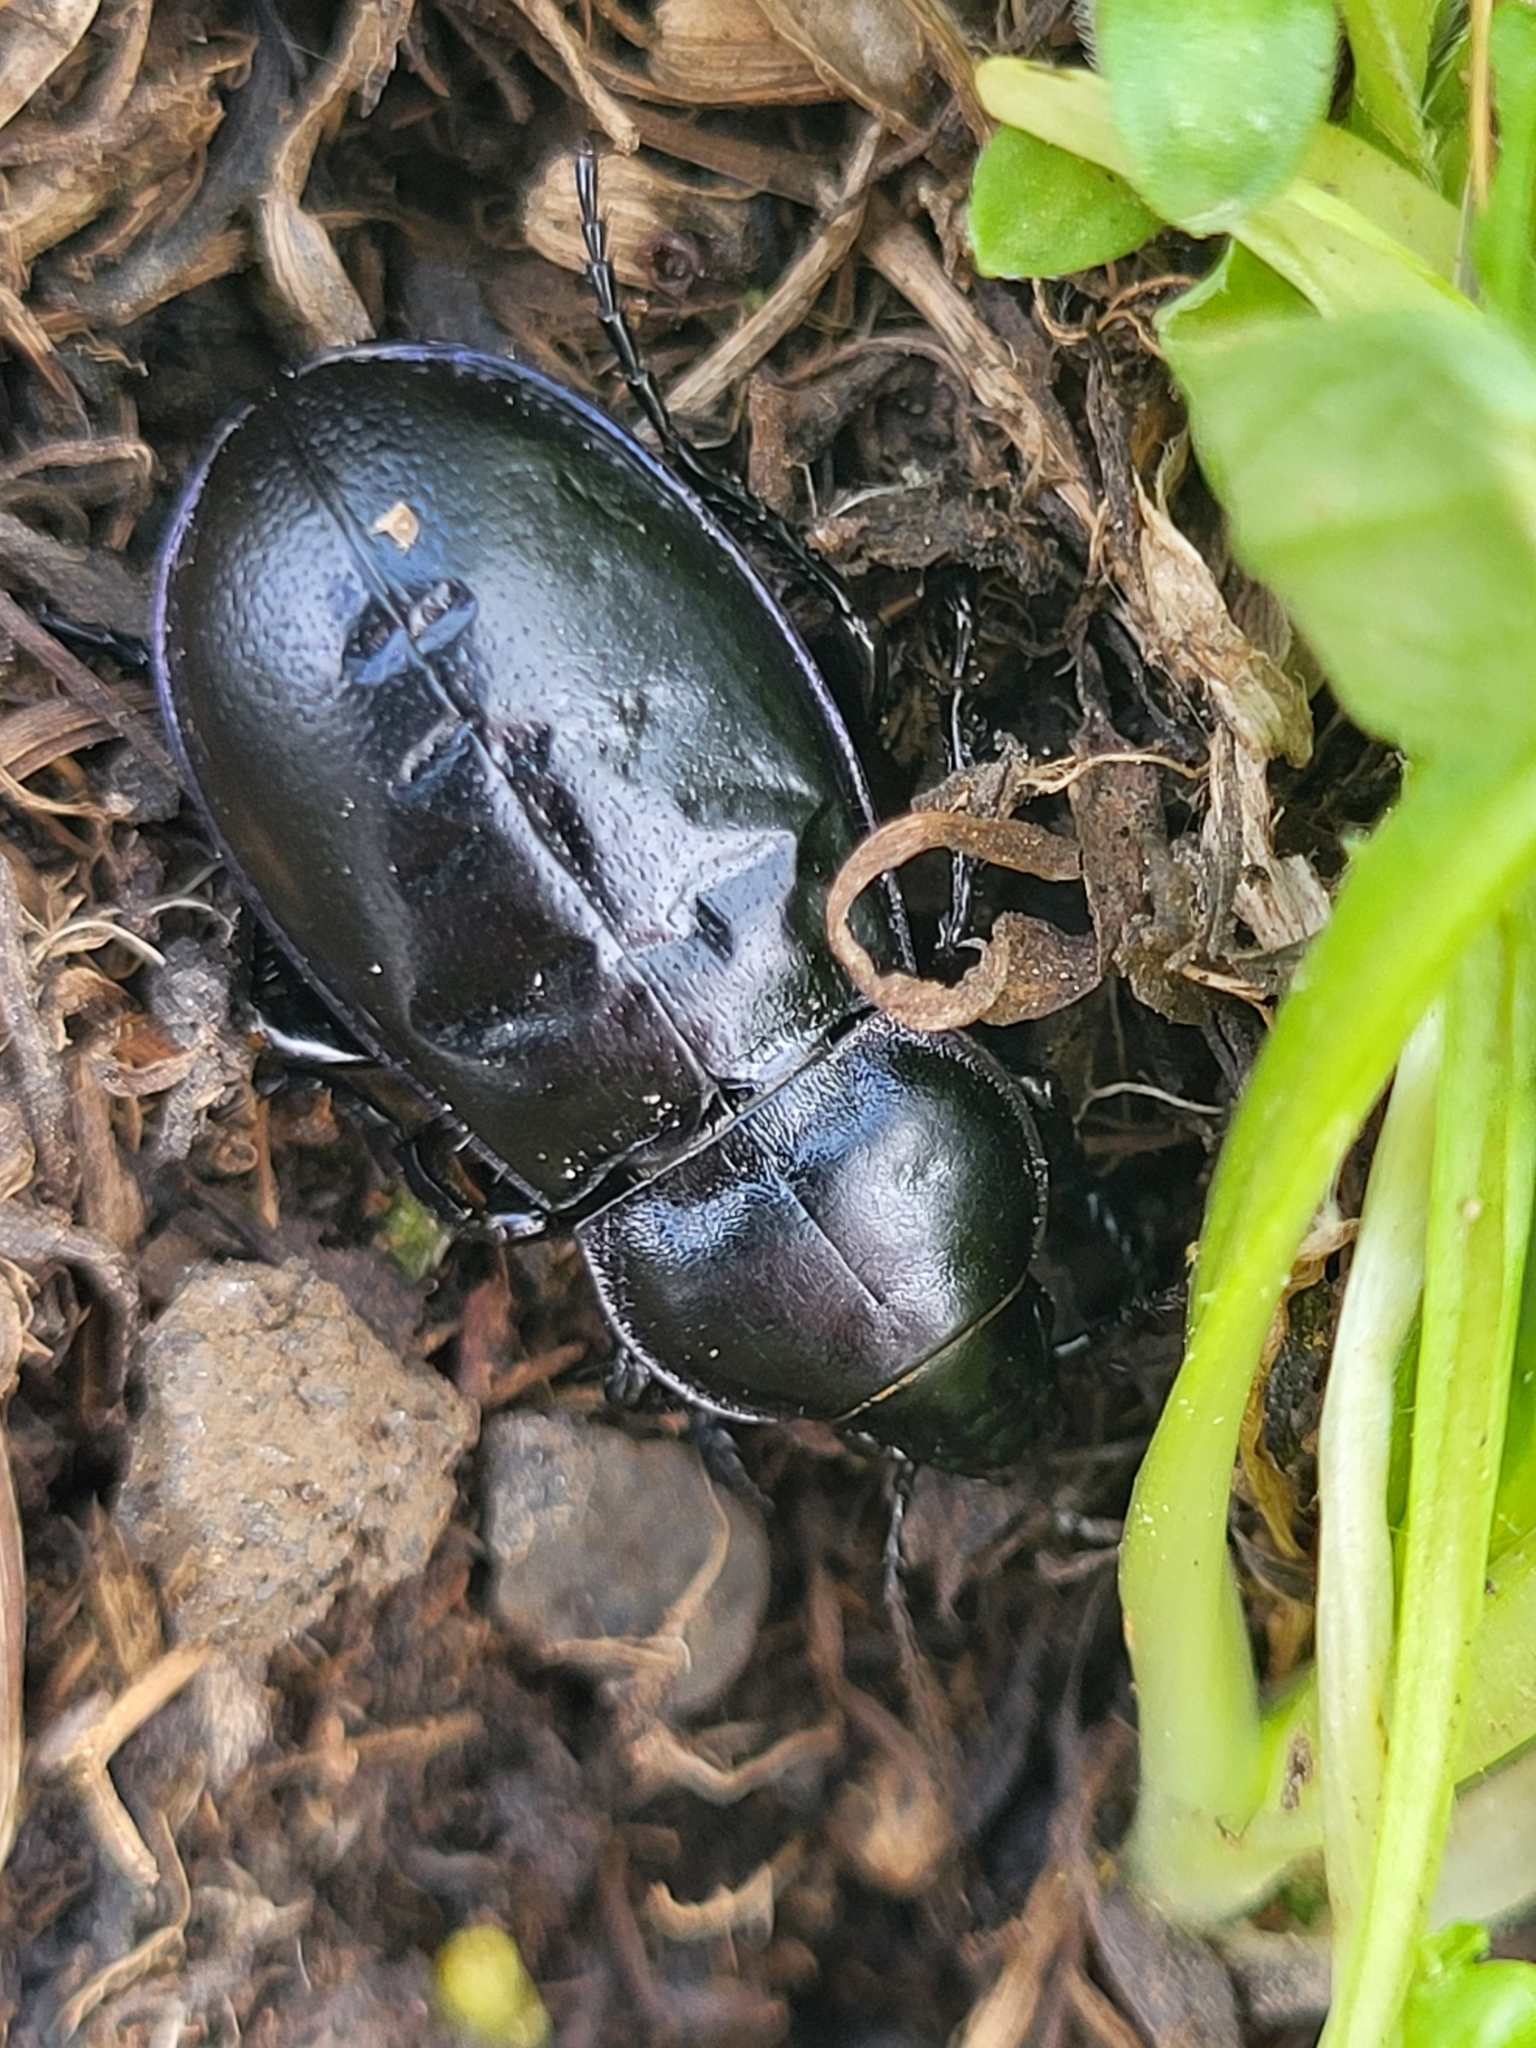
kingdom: Animalia
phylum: Arthropoda
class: Insecta
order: Coleoptera
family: Carabidae
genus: Zabrus
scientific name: Zabrus
